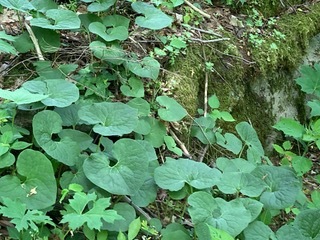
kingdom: Plantae
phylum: Tracheophyta
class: Magnoliopsida
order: Piperales
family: Aristolochiaceae
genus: Asarum
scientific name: Asarum canadense
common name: Wild ginger
